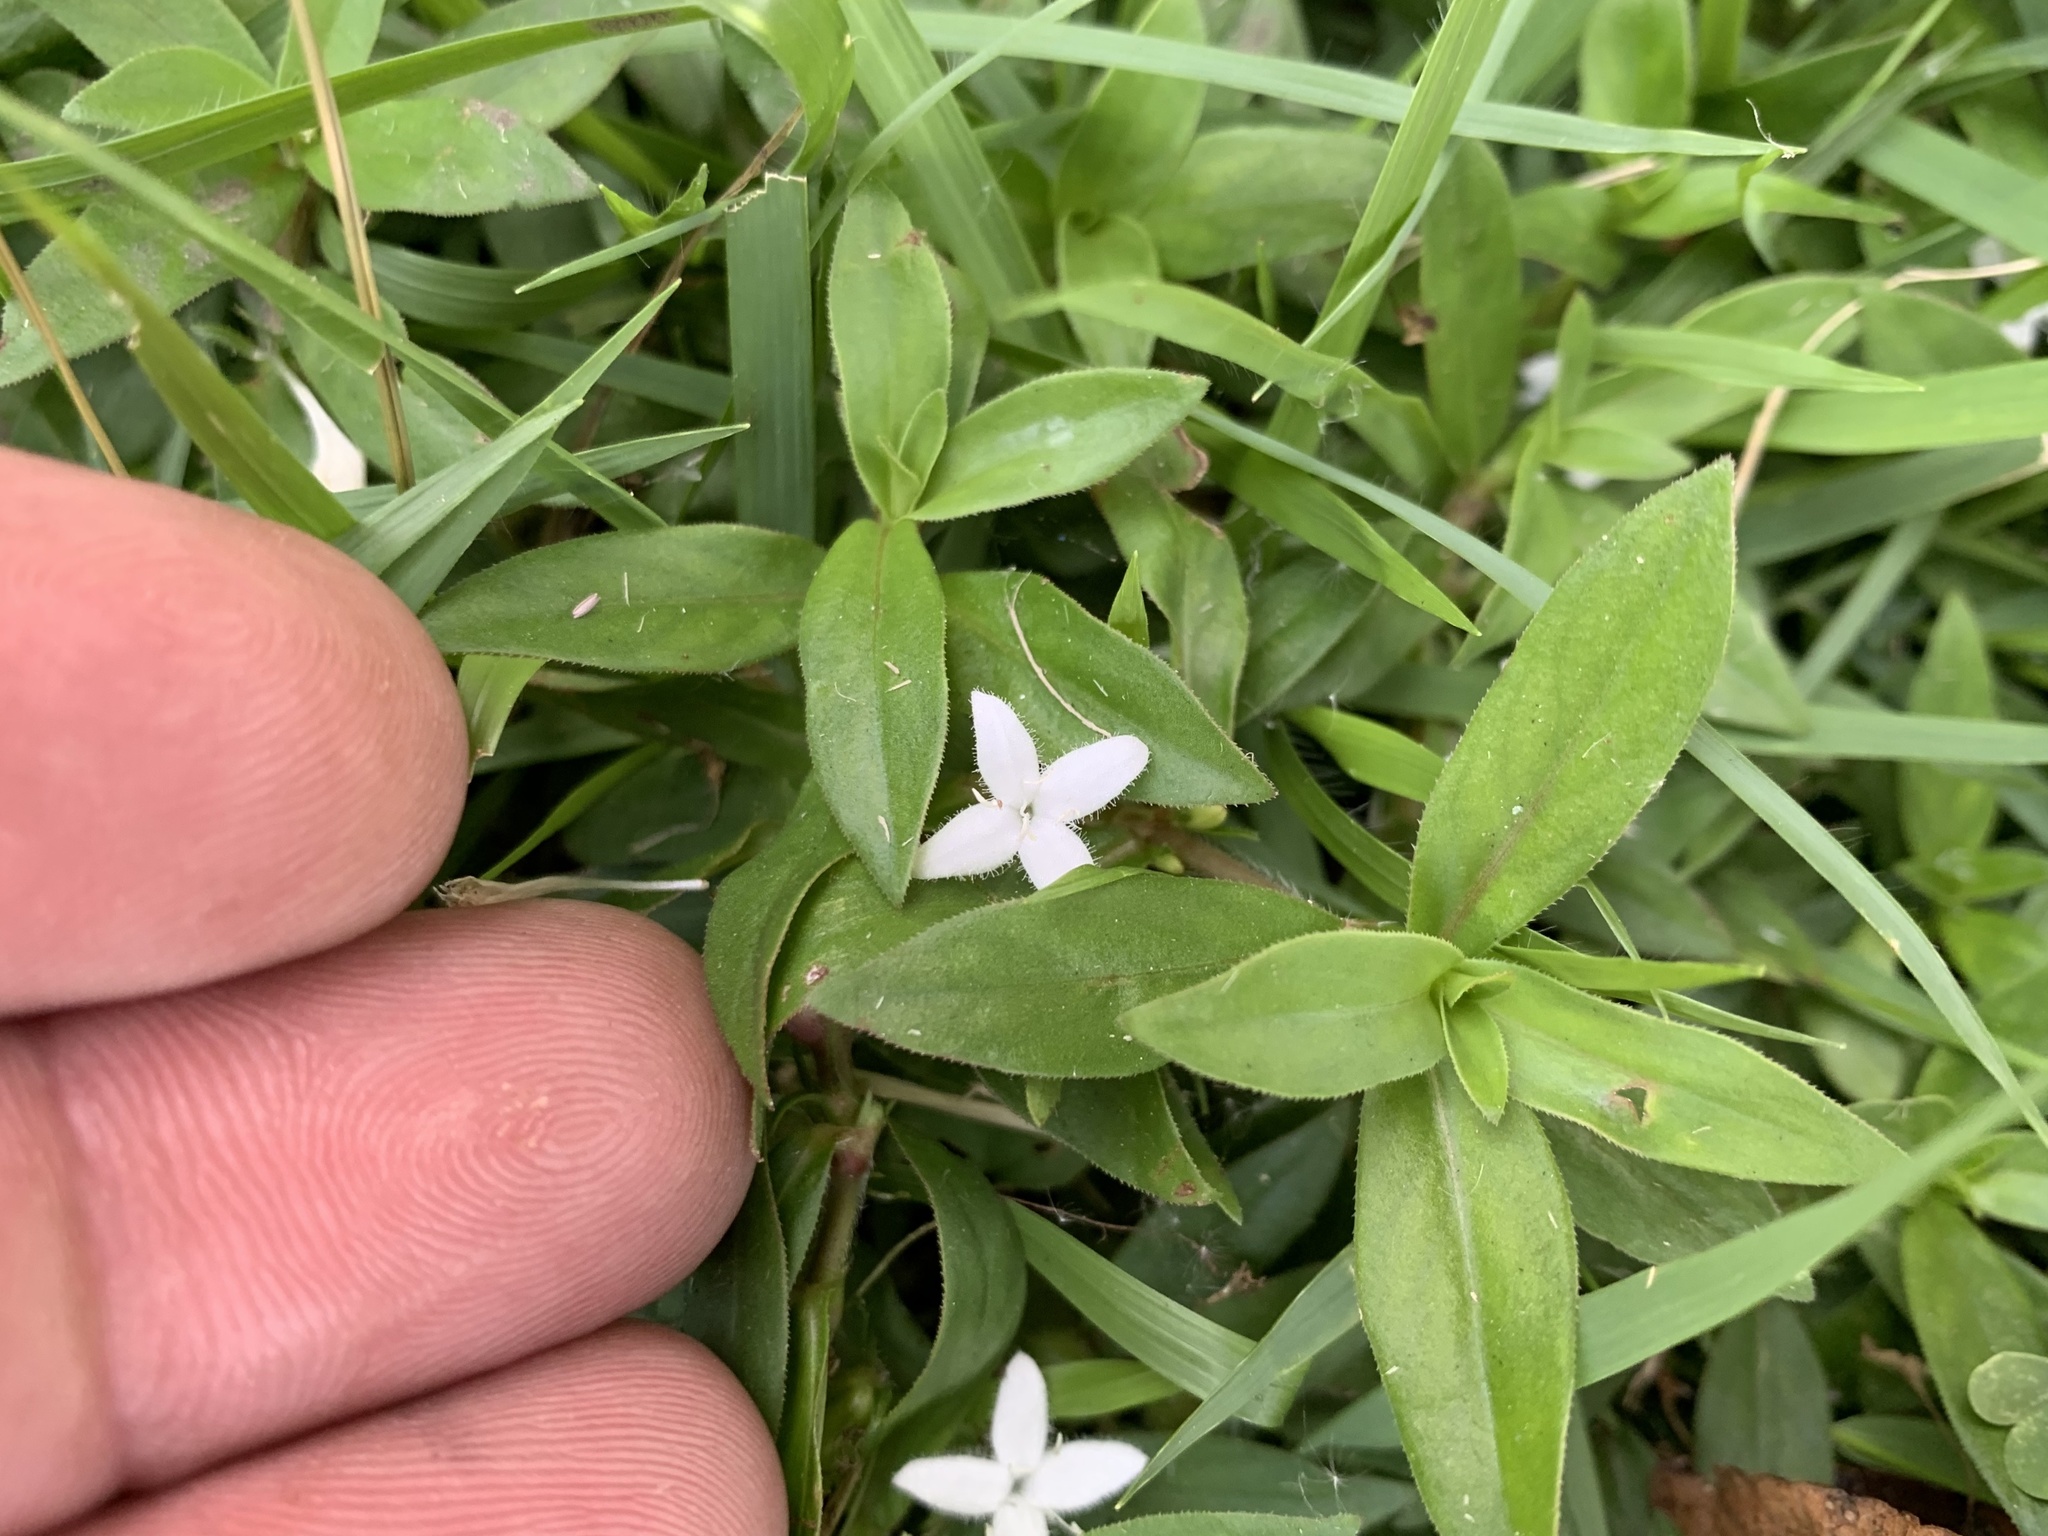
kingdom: Plantae
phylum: Tracheophyta
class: Magnoliopsida
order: Gentianales
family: Rubiaceae
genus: Diodia
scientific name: Diodia virginiana
